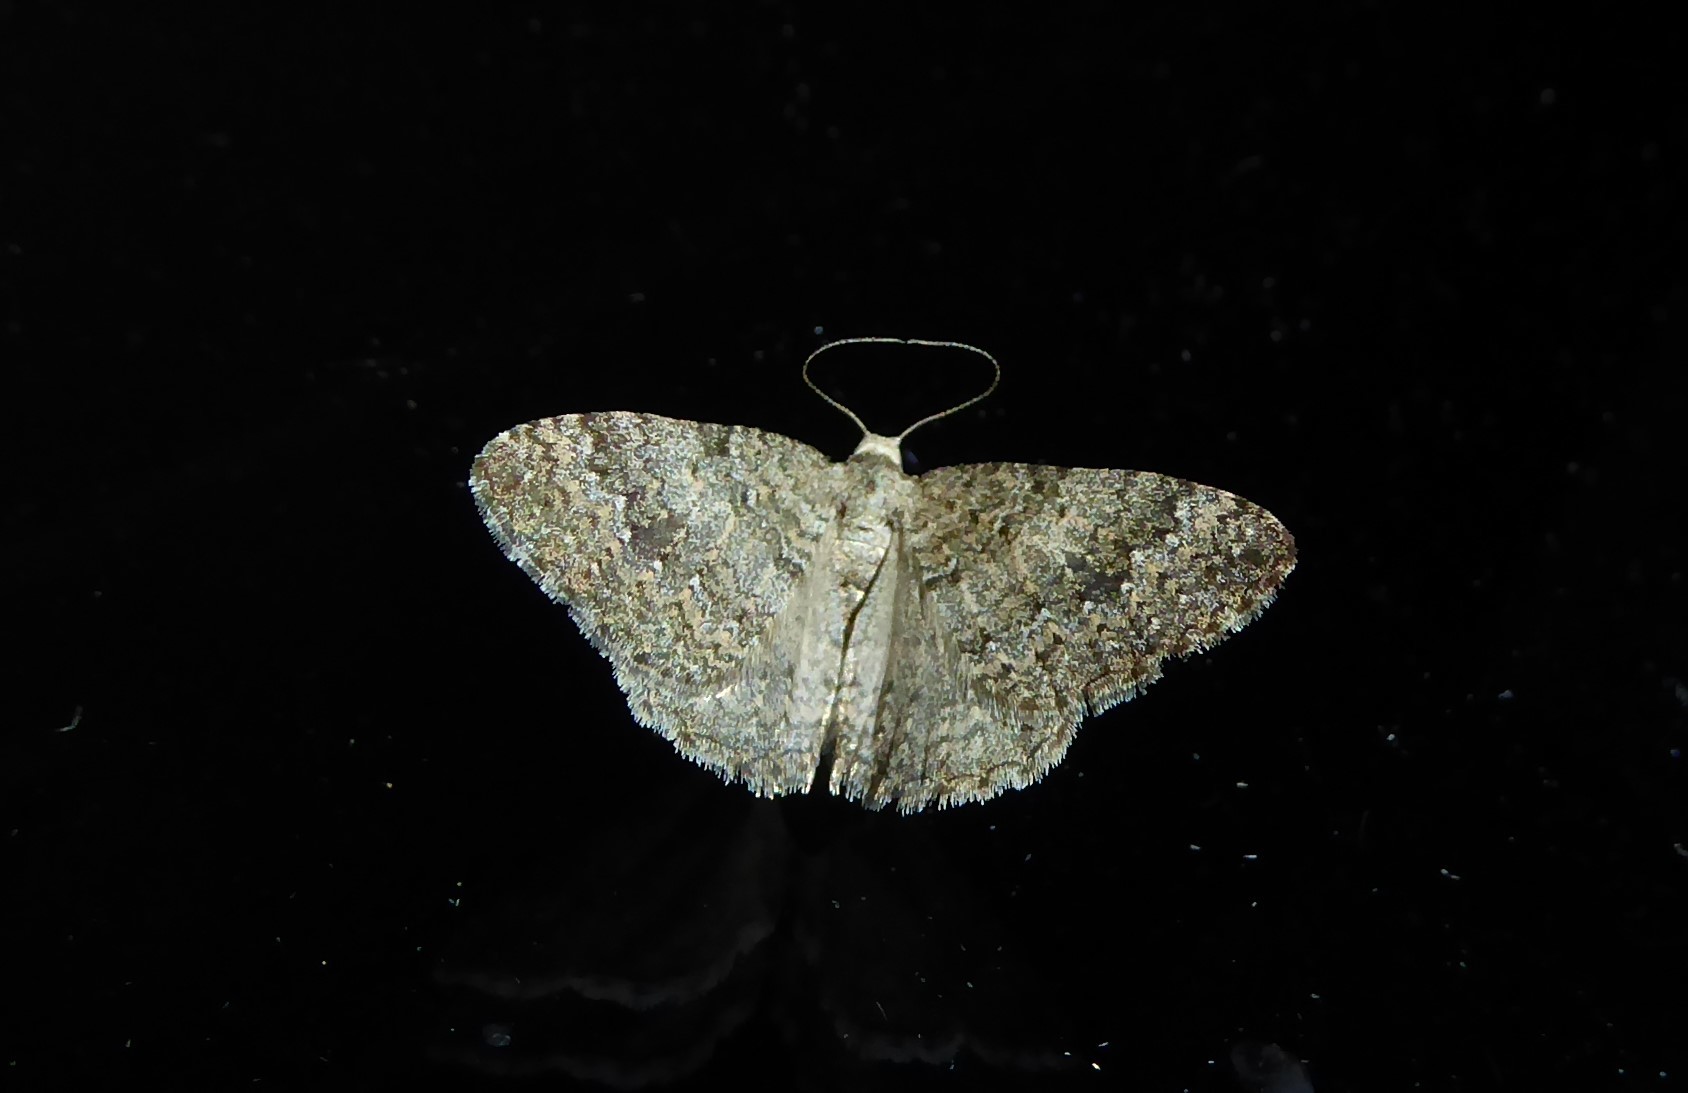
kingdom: Animalia
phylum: Arthropoda
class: Insecta
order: Lepidoptera
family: Geometridae
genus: Helastia
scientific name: Helastia corcularia
